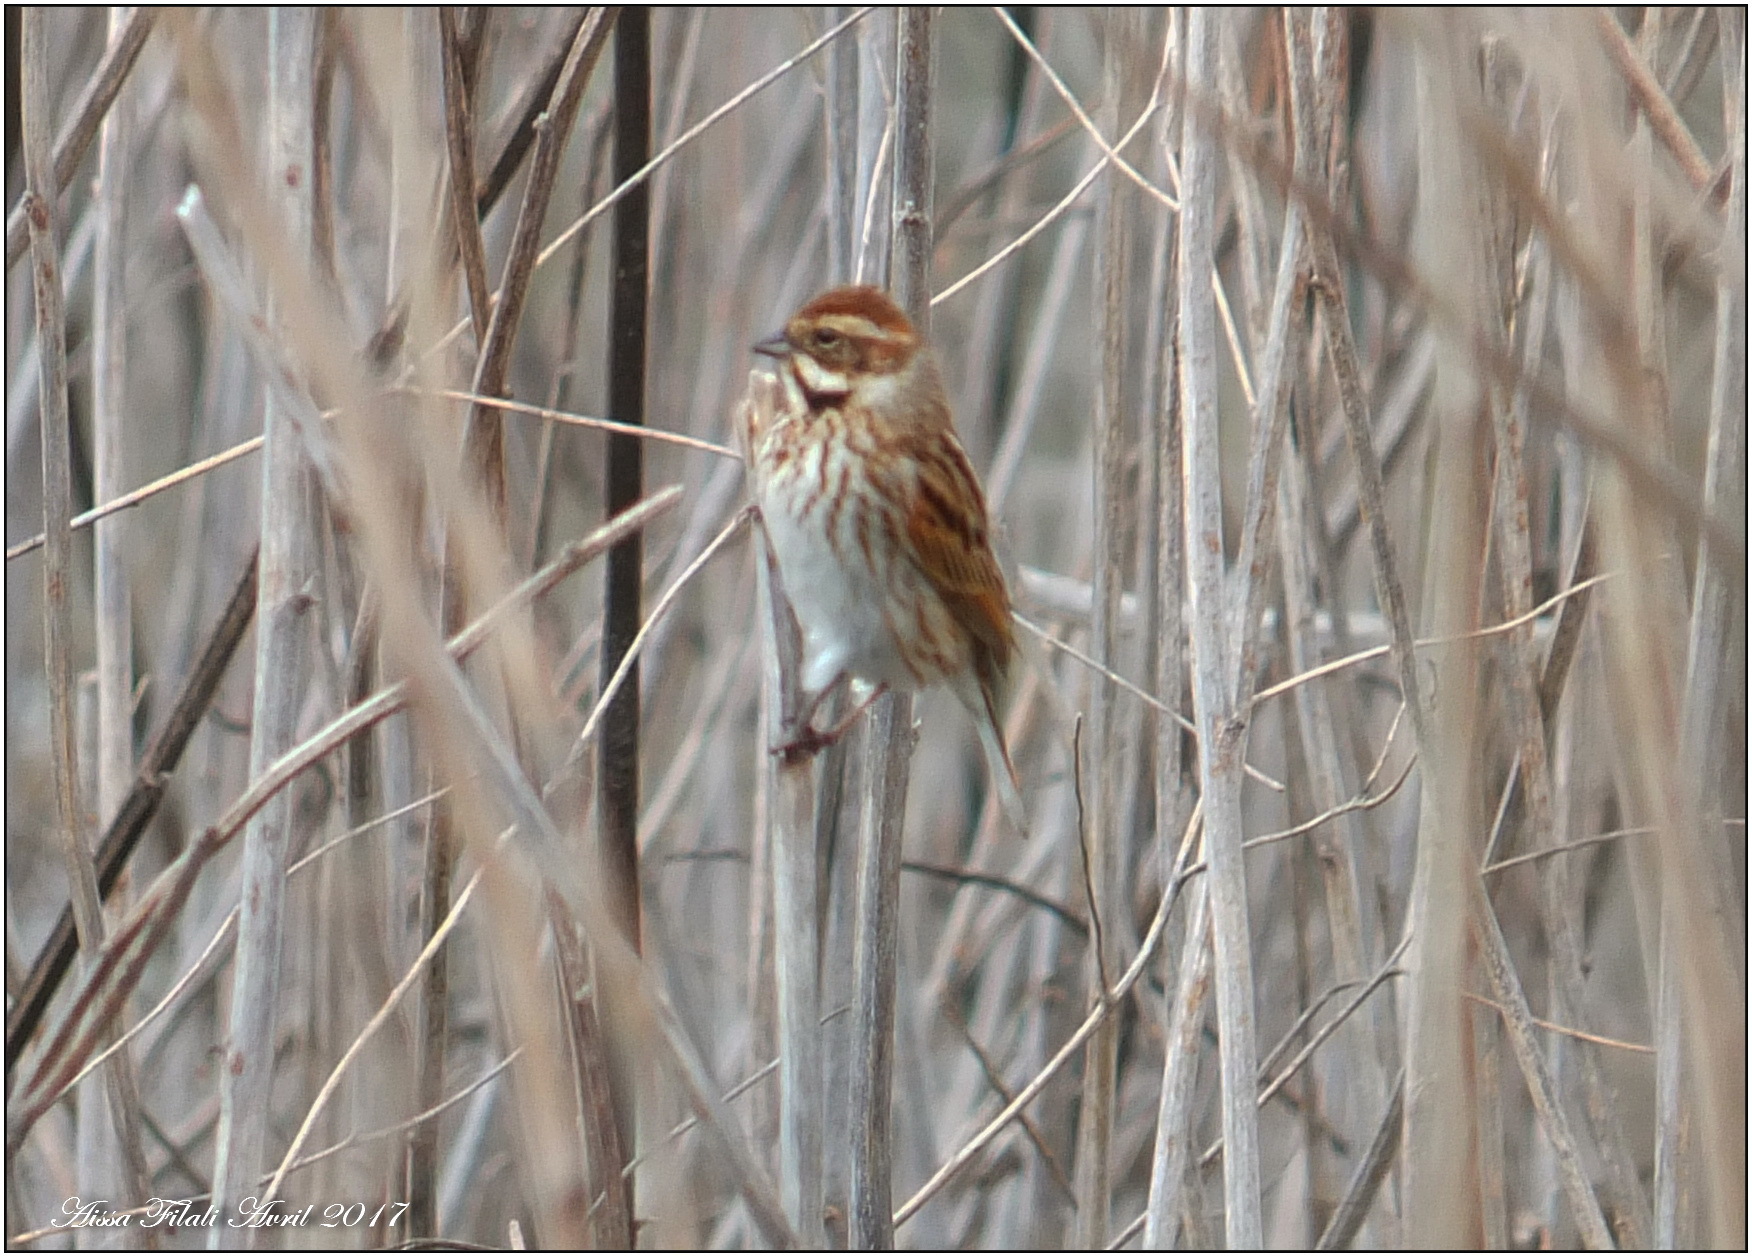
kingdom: Animalia
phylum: Chordata
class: Aves
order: Passeriformes
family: Emberizidae
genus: Emberiza
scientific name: Emberiza schoeniclus
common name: Reed bunting
